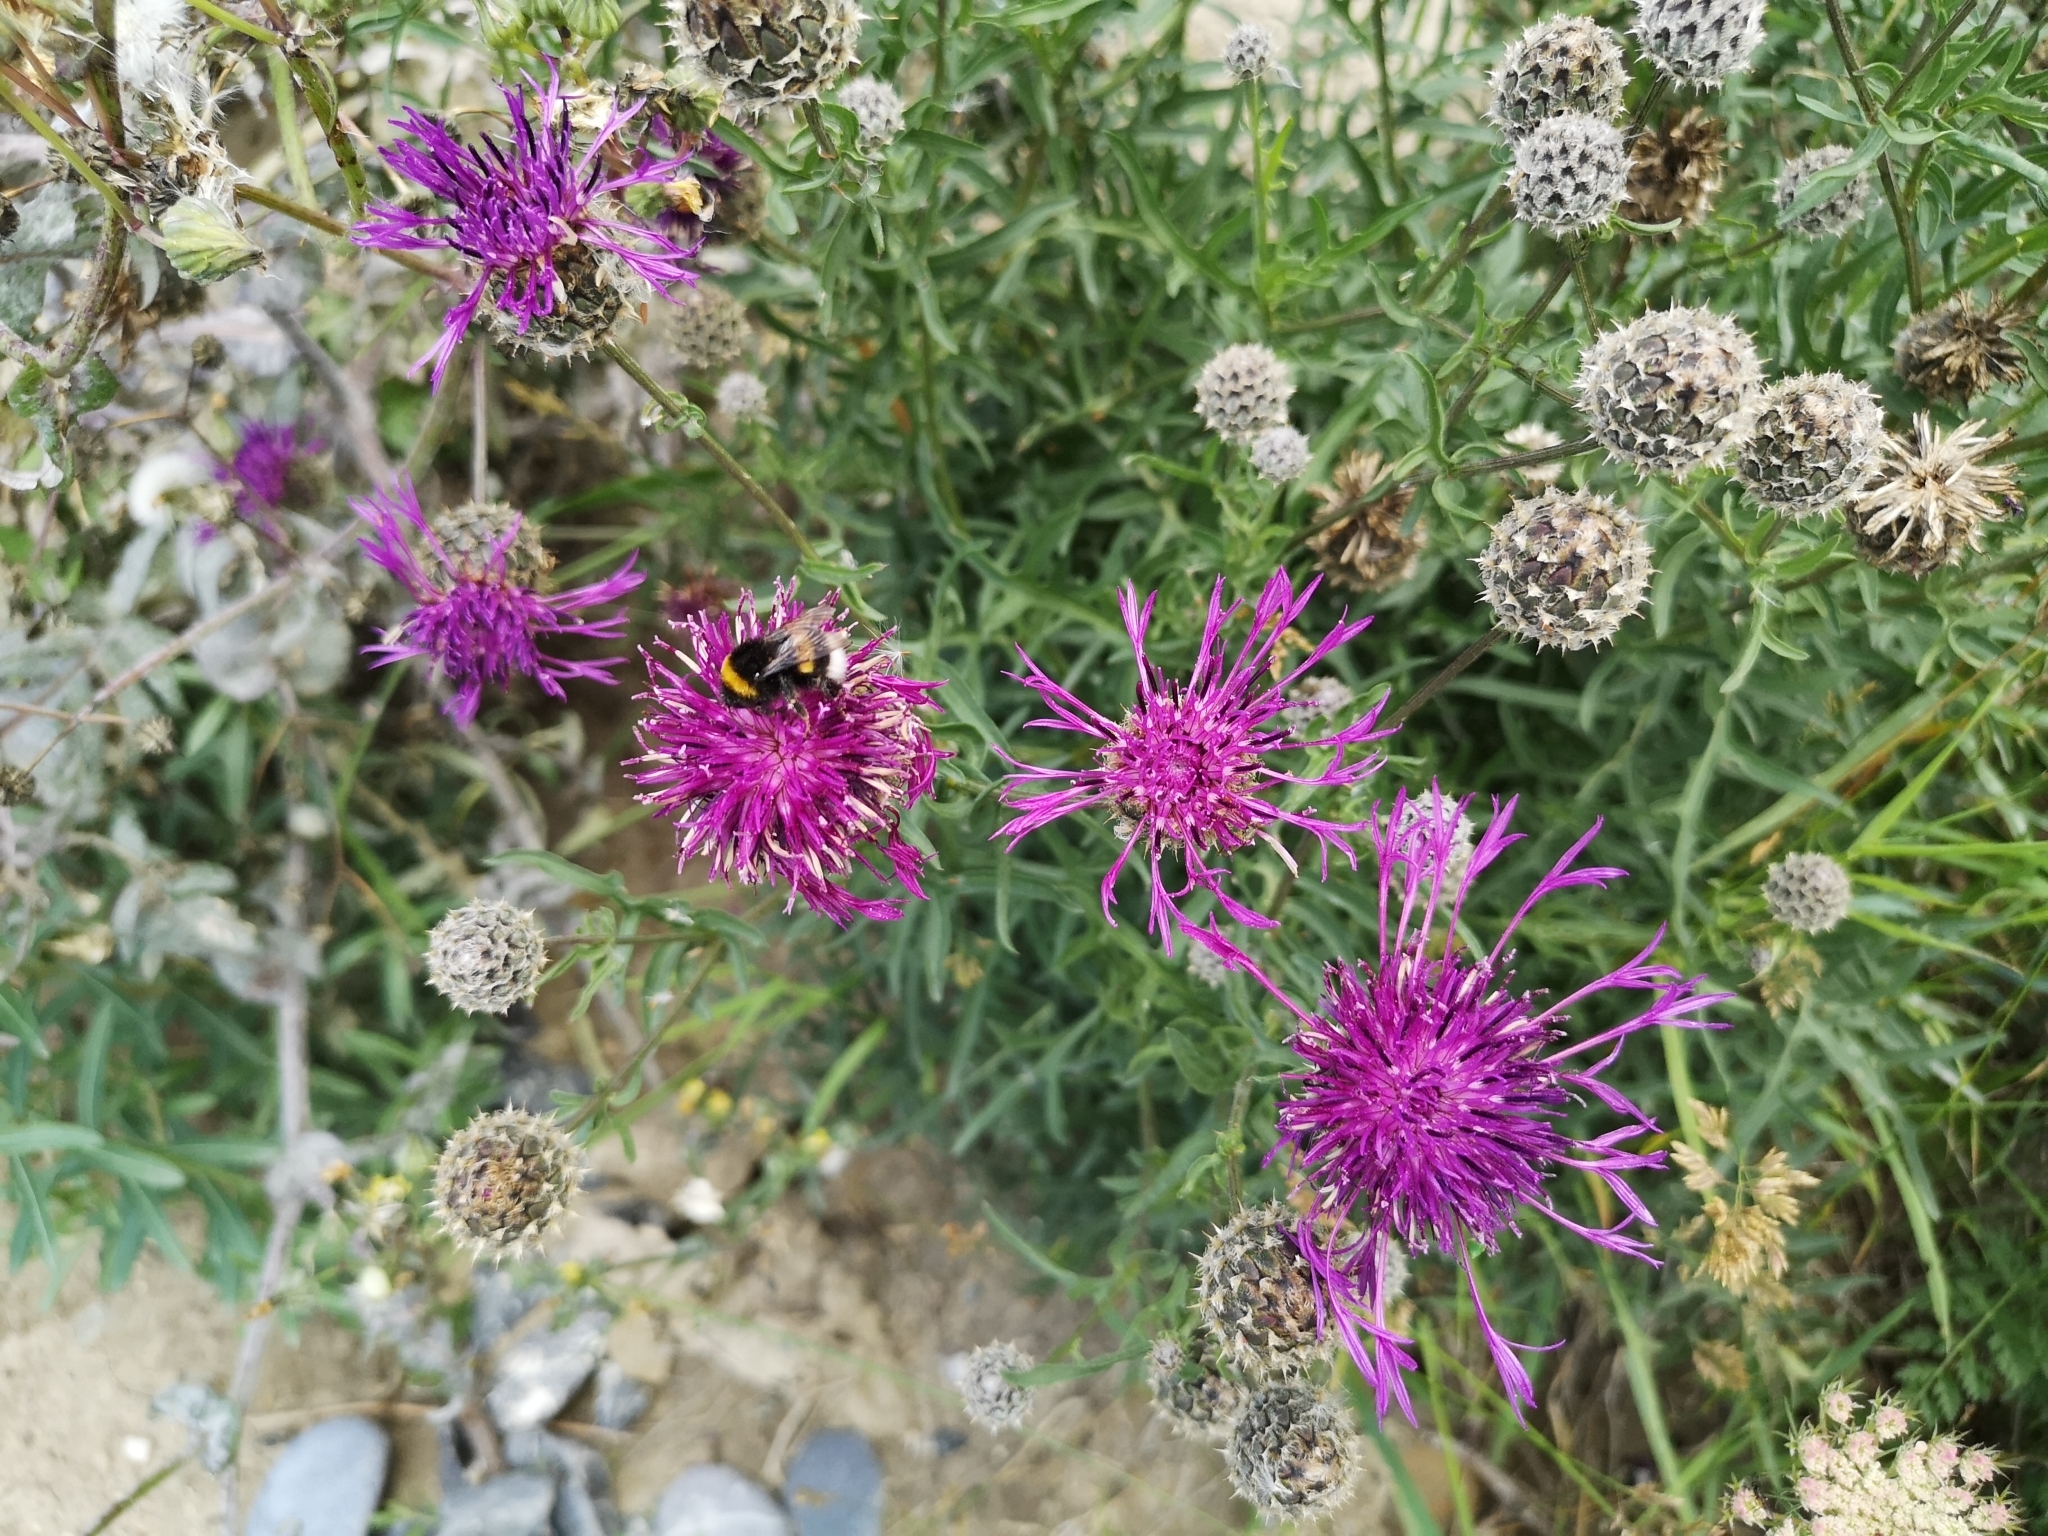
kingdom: Plantae
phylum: Tracheophyta
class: Magnoliopsida
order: Asterales
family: Asteraceae
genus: Centaurea
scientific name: Centaurea scabiosa
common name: Greater knapweed
